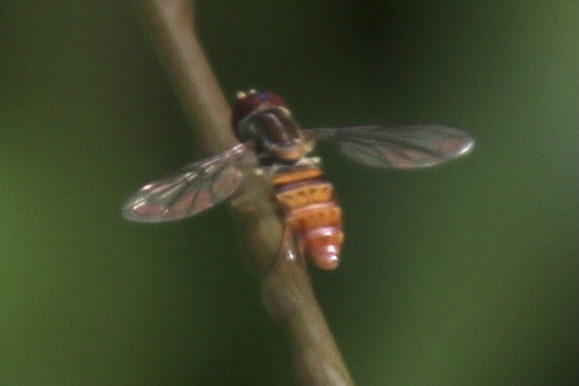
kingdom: Animalia
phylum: Arthropoda
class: Insecta
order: Diptera
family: Syrphidae
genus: Toxomerus
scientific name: Toxomerus pulchellus
